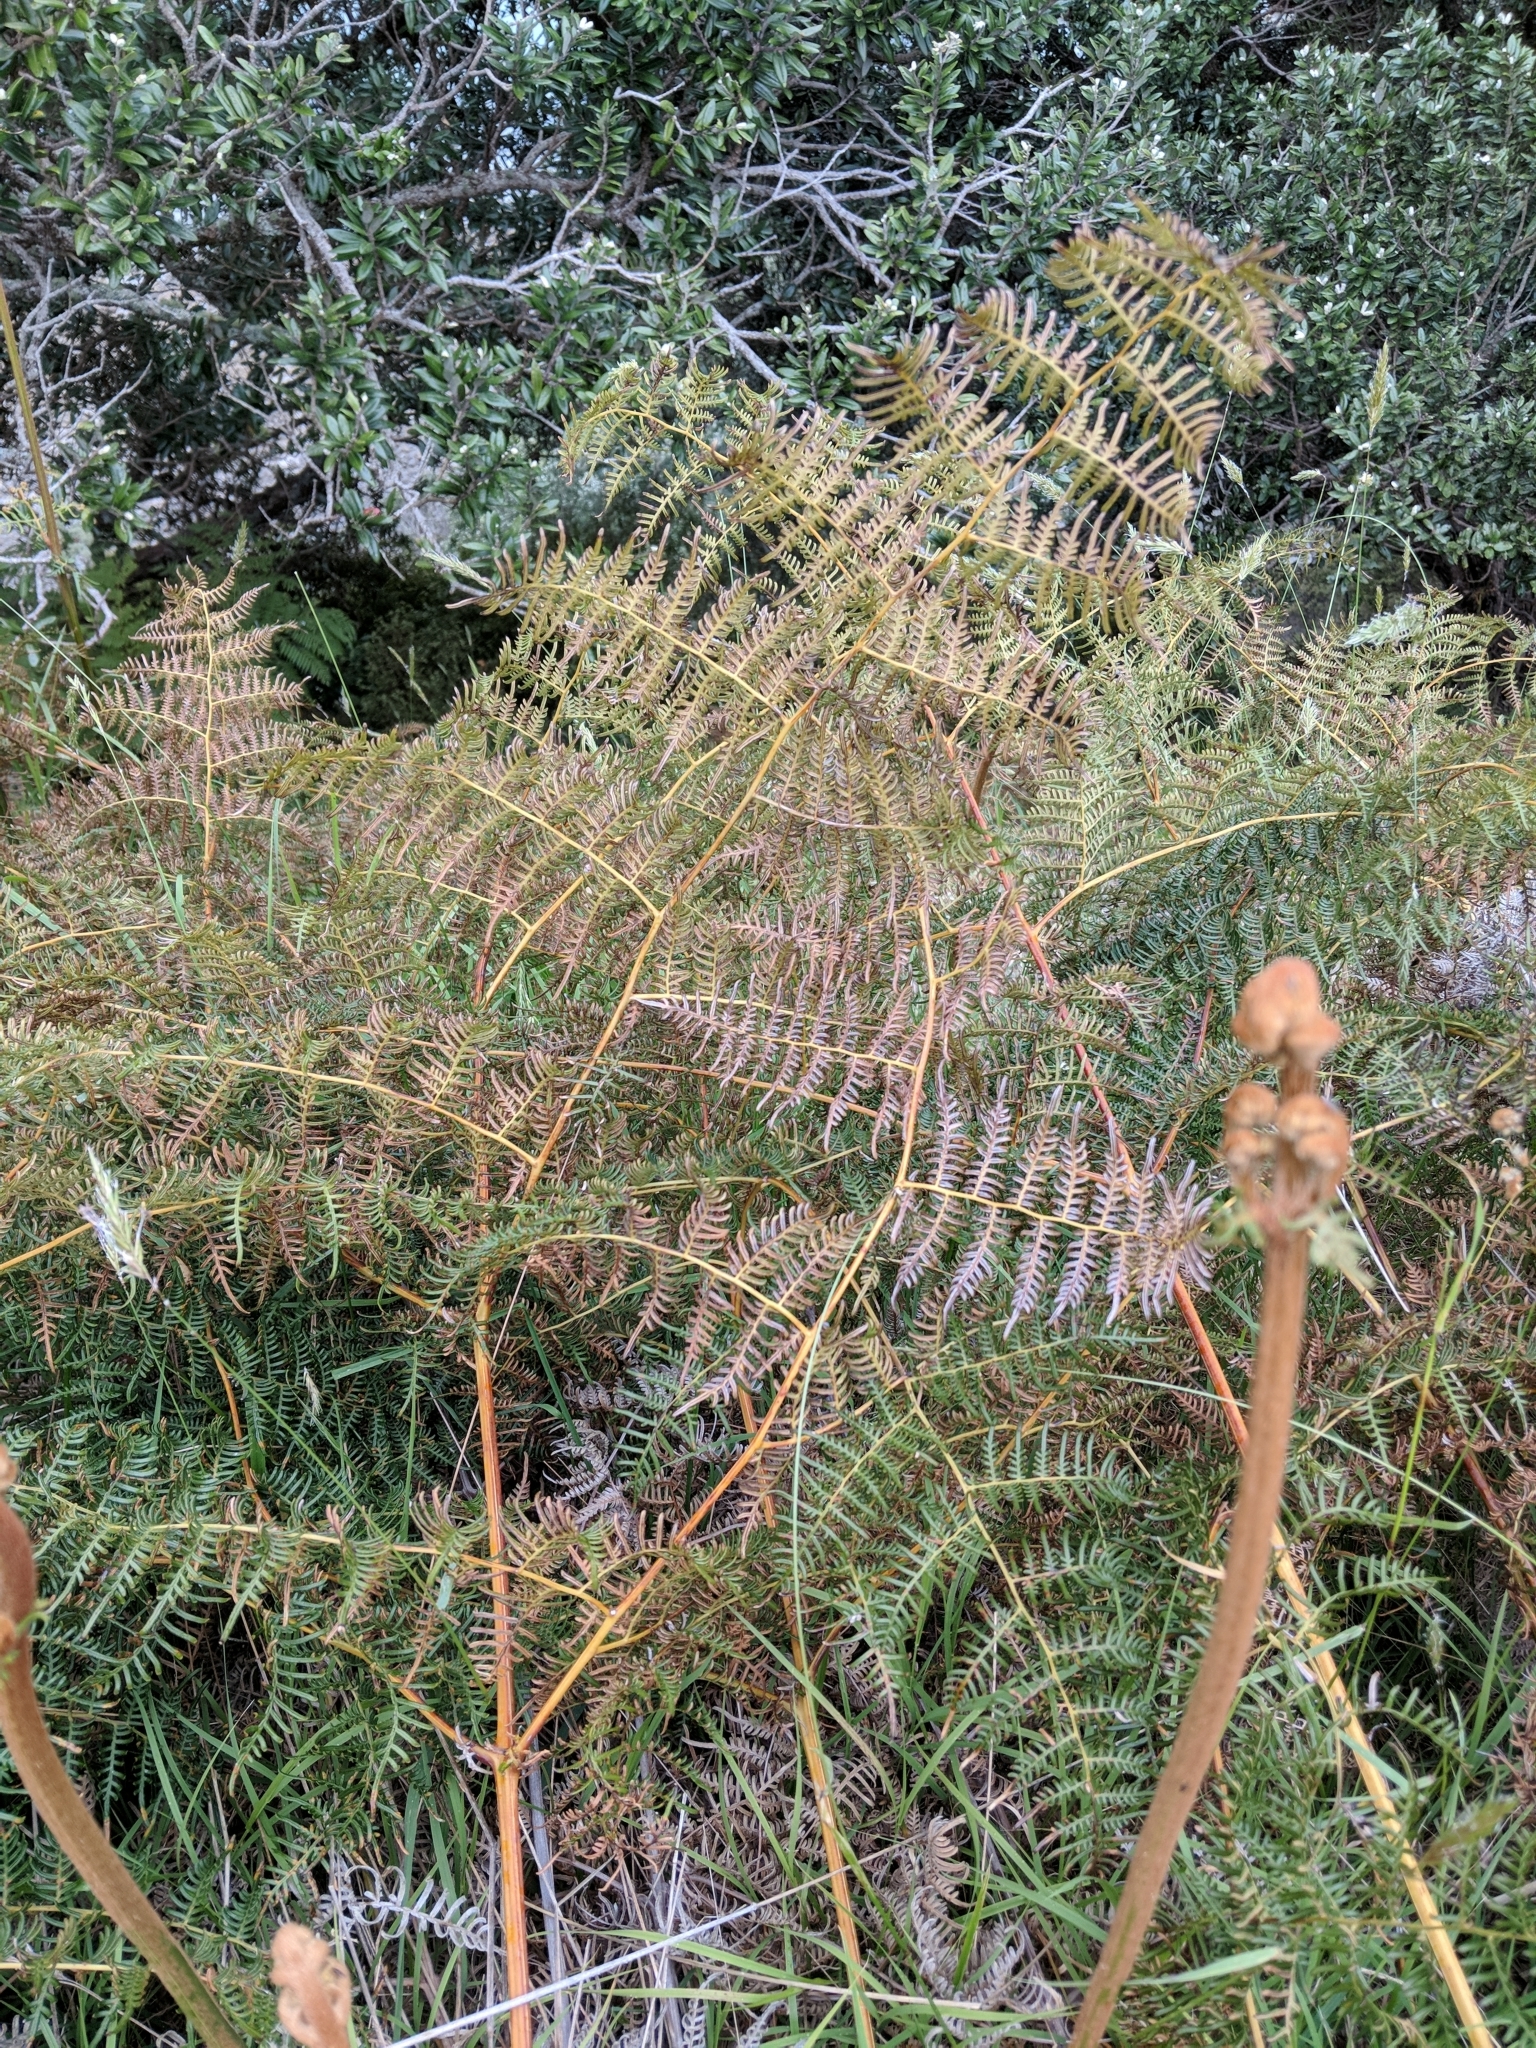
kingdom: Plantae
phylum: Tracheophyta
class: Polypodiopsida
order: Polypodiales
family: Dennstaedtiaceae
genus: Pteridium
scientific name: Pteridium esculentum
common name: Bracken fern
